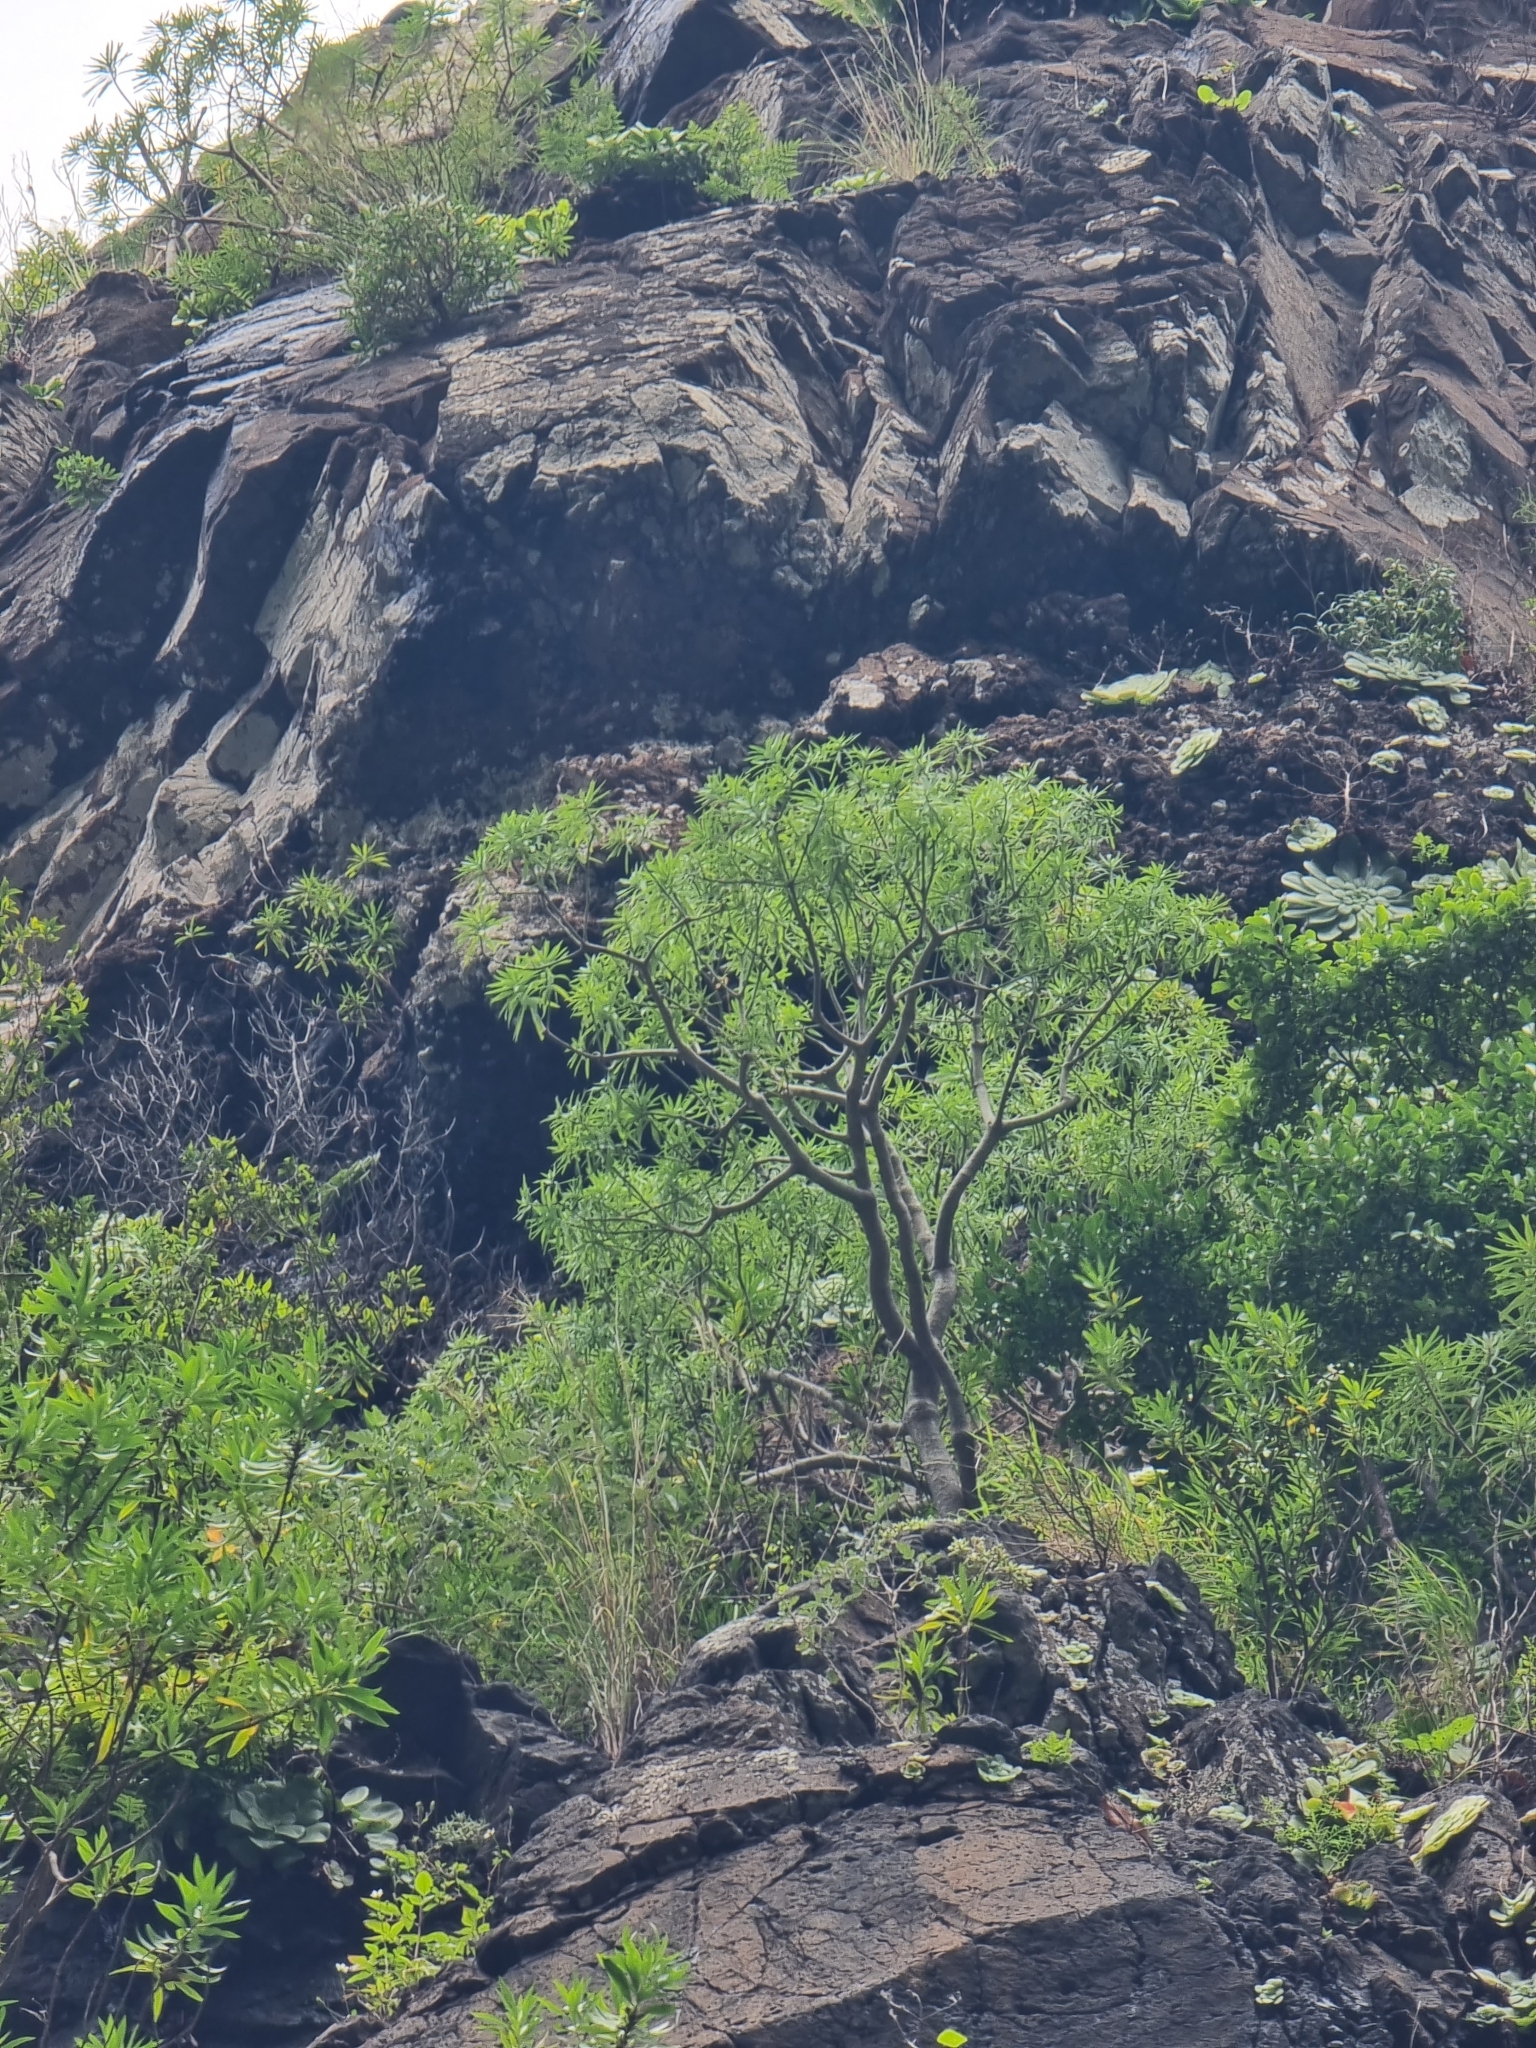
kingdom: Plantae
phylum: Tracheophyta
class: Magnoliopsida
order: Malpighiales
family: Euphorbiaceae
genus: Euphorbia
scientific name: Euphorbia piscatoria
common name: Fish-stunning spurge
